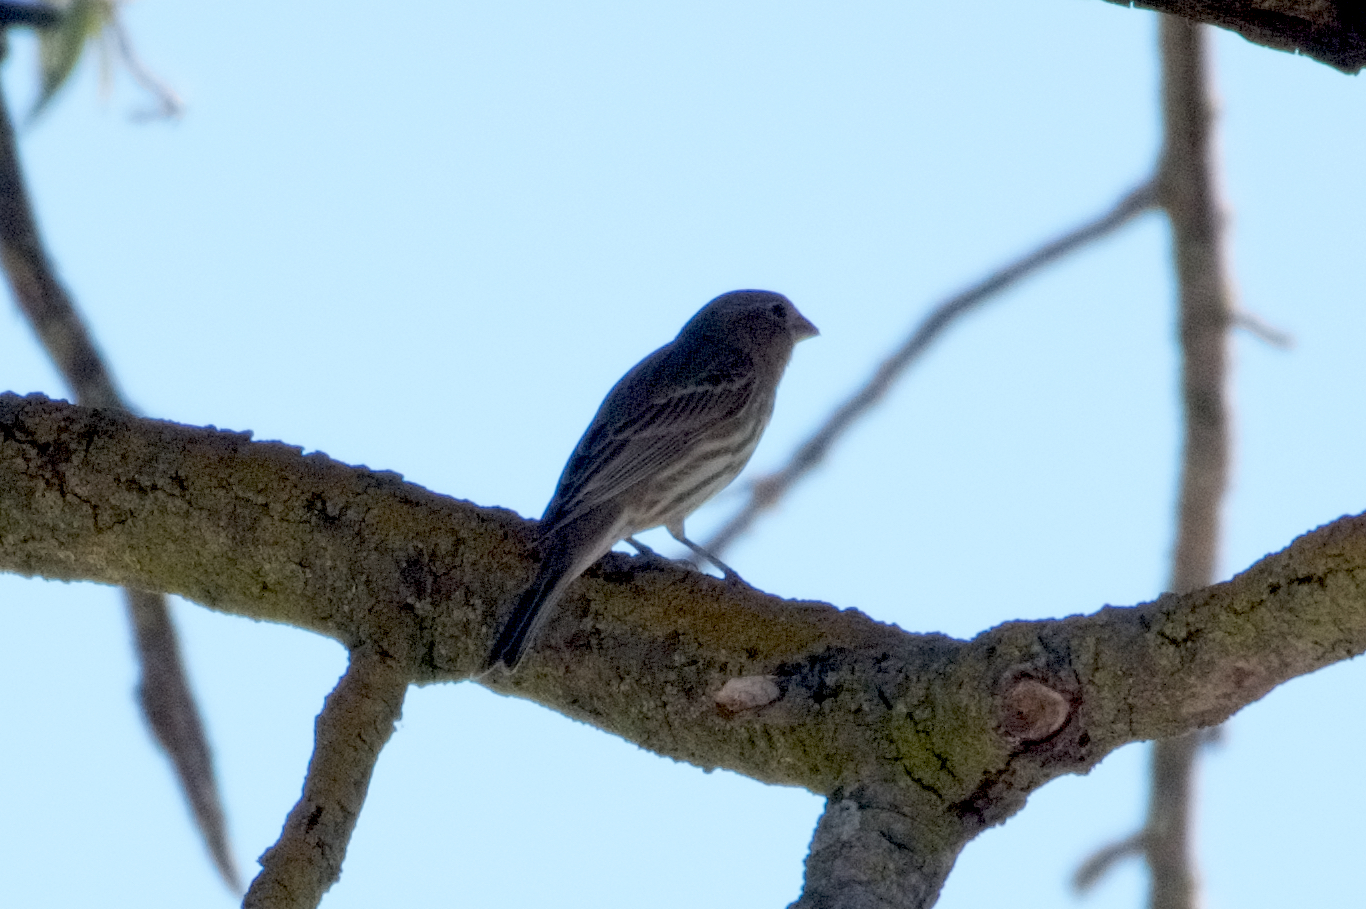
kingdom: Animalia
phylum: Chordata
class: Aves
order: Passeriformes
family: Fringillidae
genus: Haemorhous
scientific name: Haemorhous mexicanus
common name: House finch
